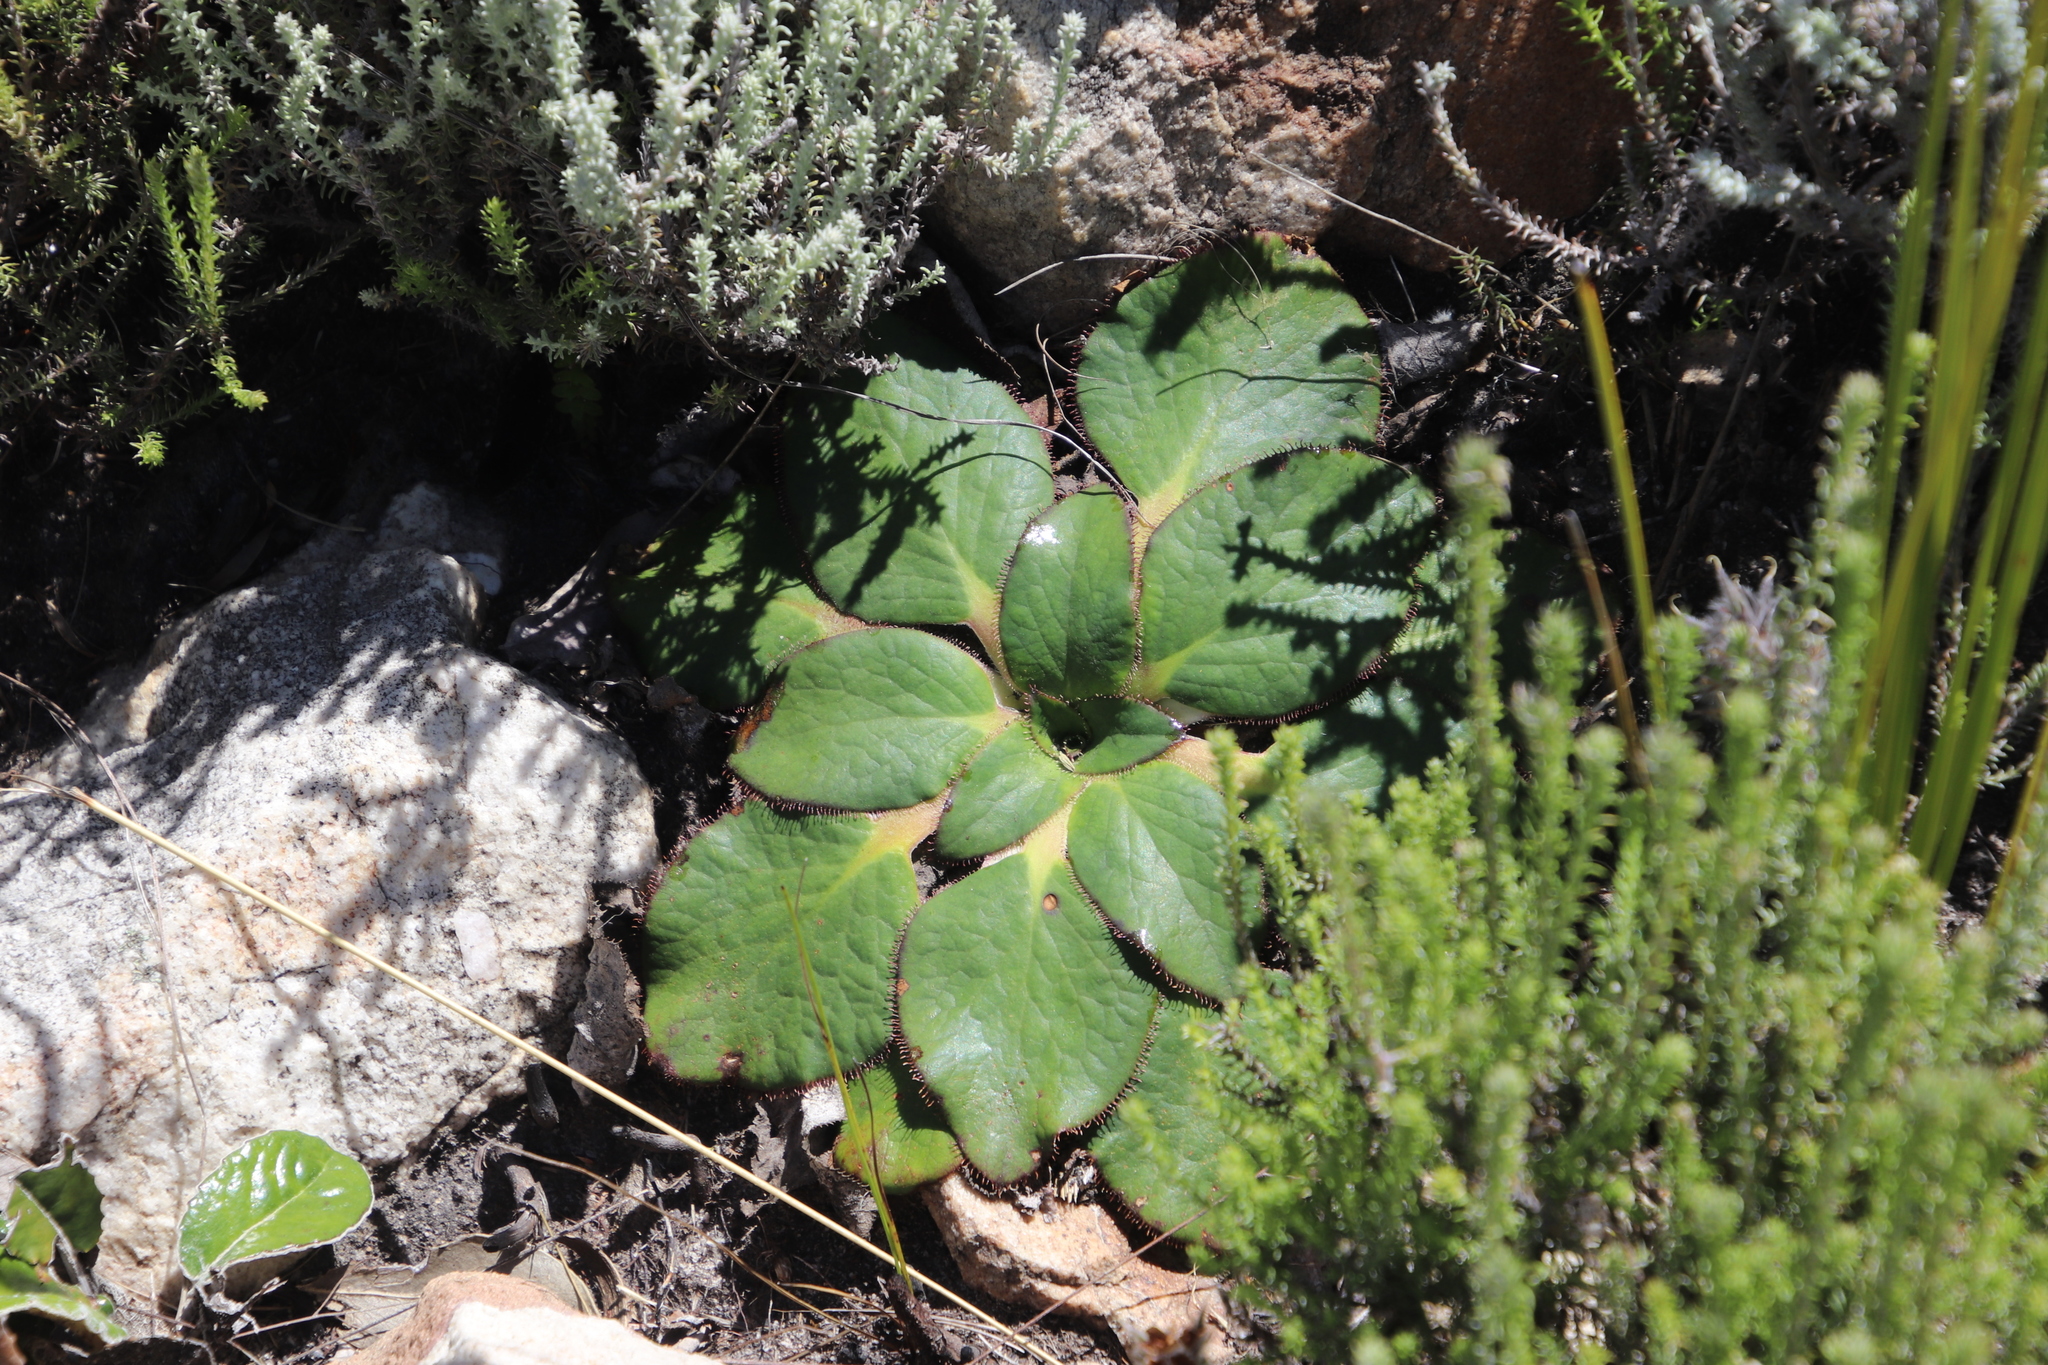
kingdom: Plantae
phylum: Tracheophyta
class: Magnoliopsida
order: Apiales
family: Apiaceae
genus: Hermas
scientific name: Hermas ciliata
